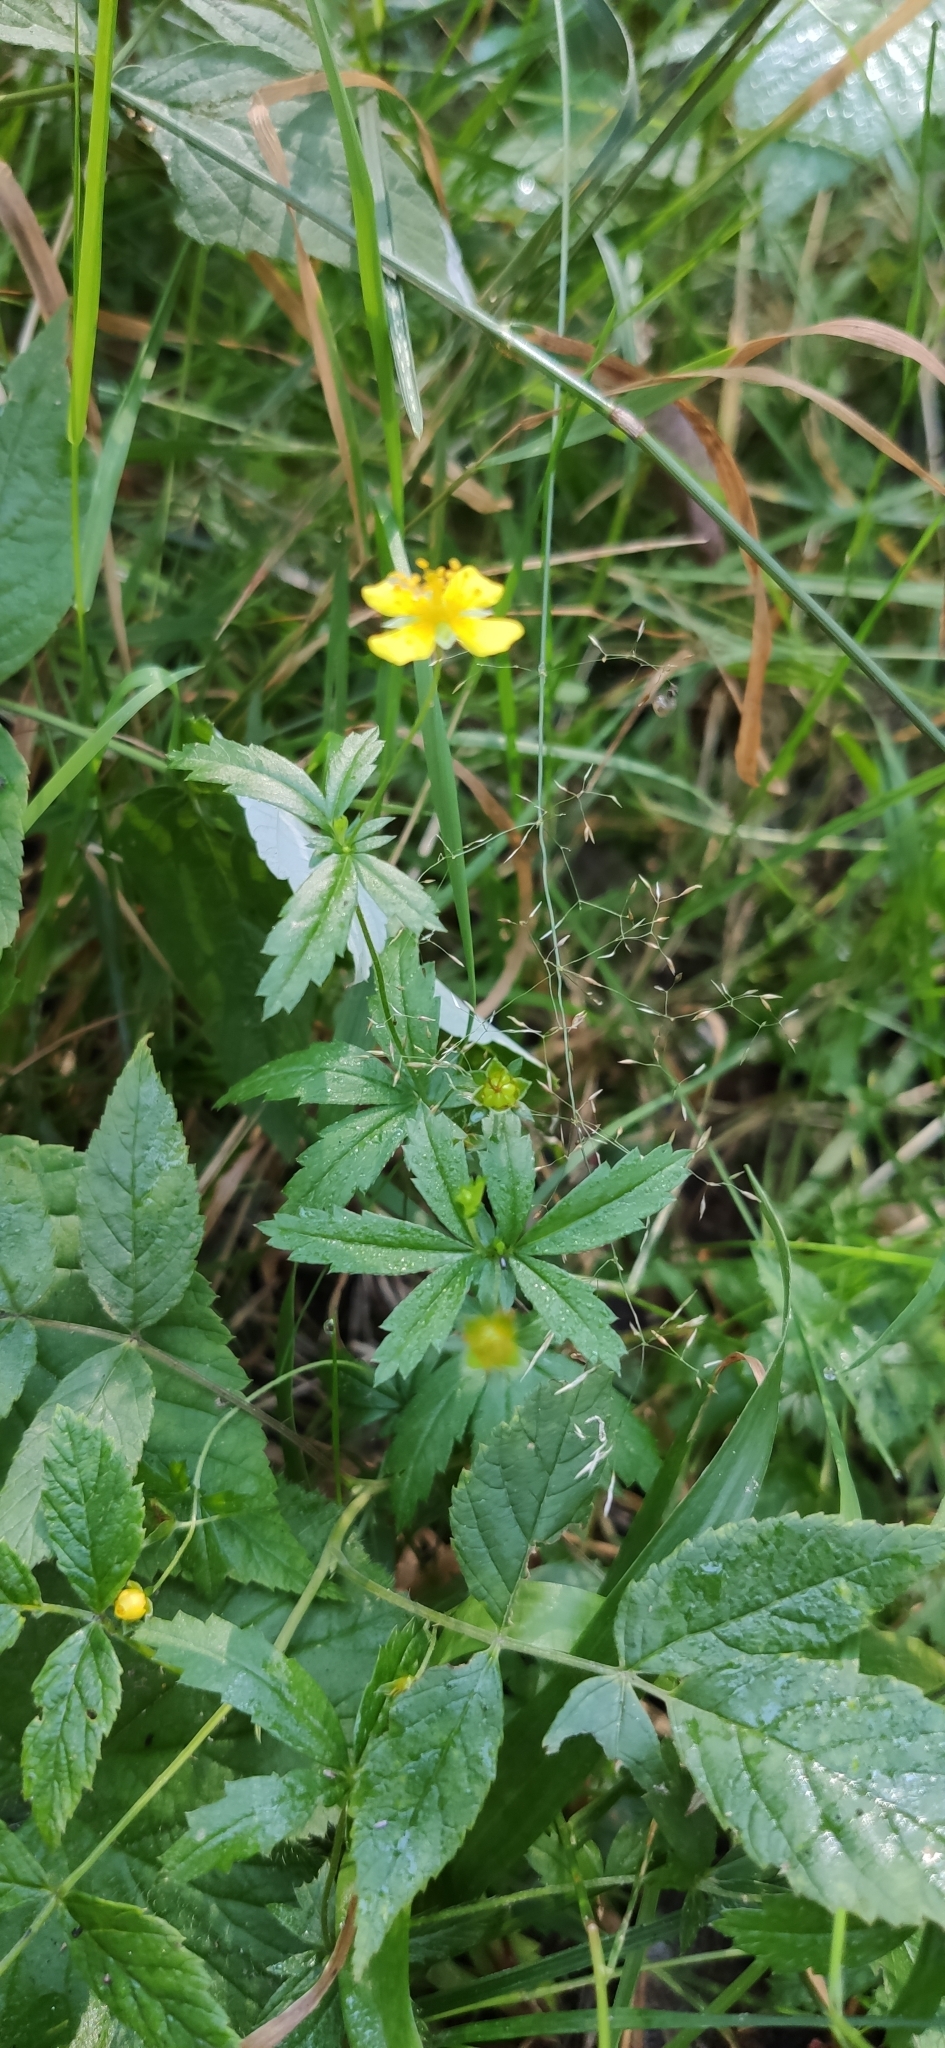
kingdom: Plantae
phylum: Tracheophyta
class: Magnoliopsida
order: Rosales
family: Rosaceae
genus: Potentilla
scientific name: Potentilla erecta
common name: Tormentil
